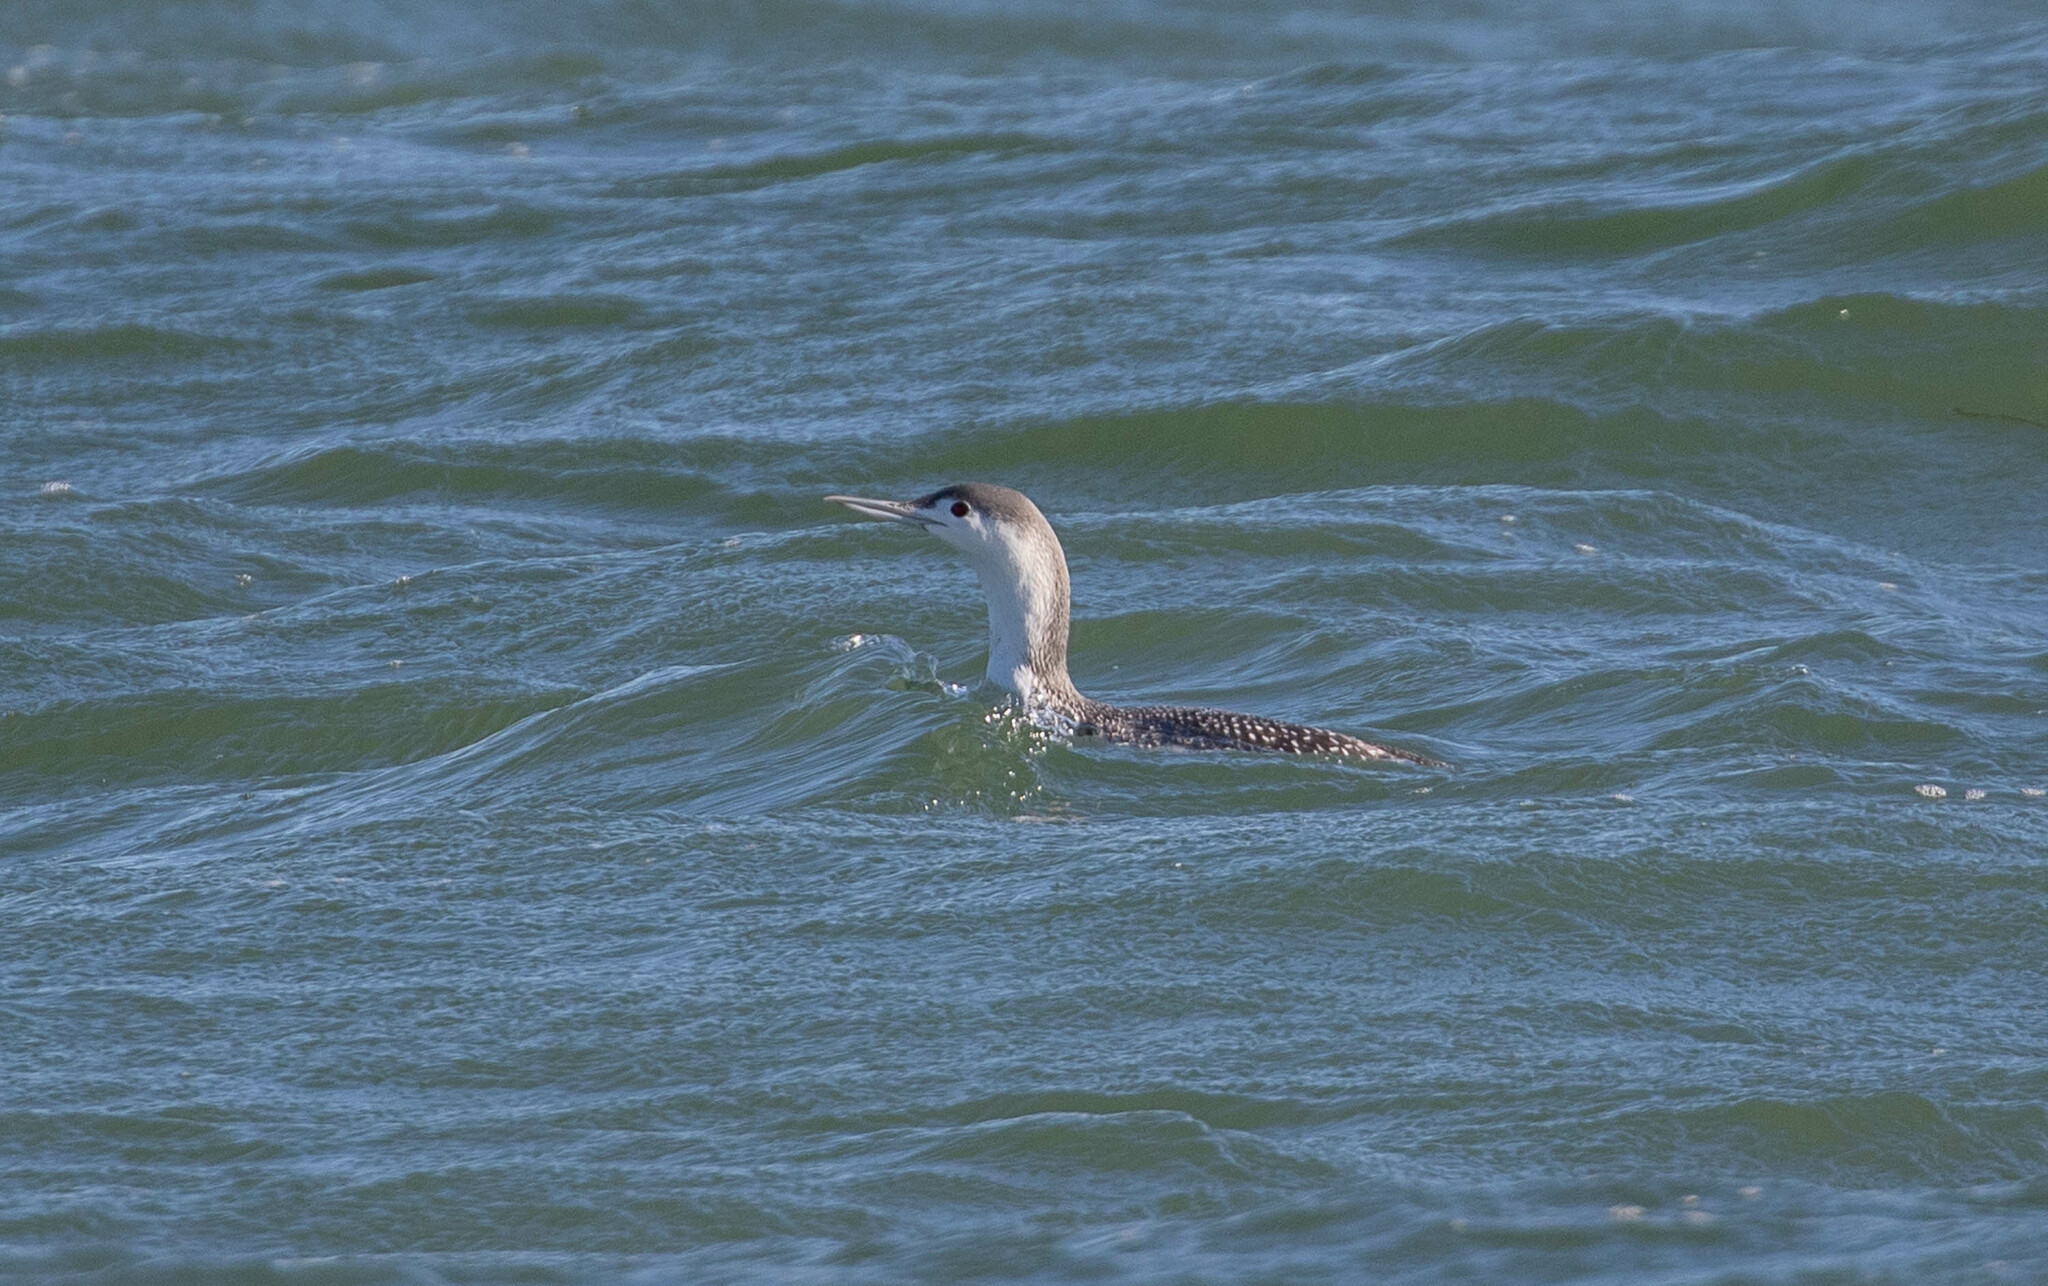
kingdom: Animalia
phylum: Chordata
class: Aves
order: Gaviiformes
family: Gaviidae
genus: Gavia
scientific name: Gavia stellata
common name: Red-throated loon
